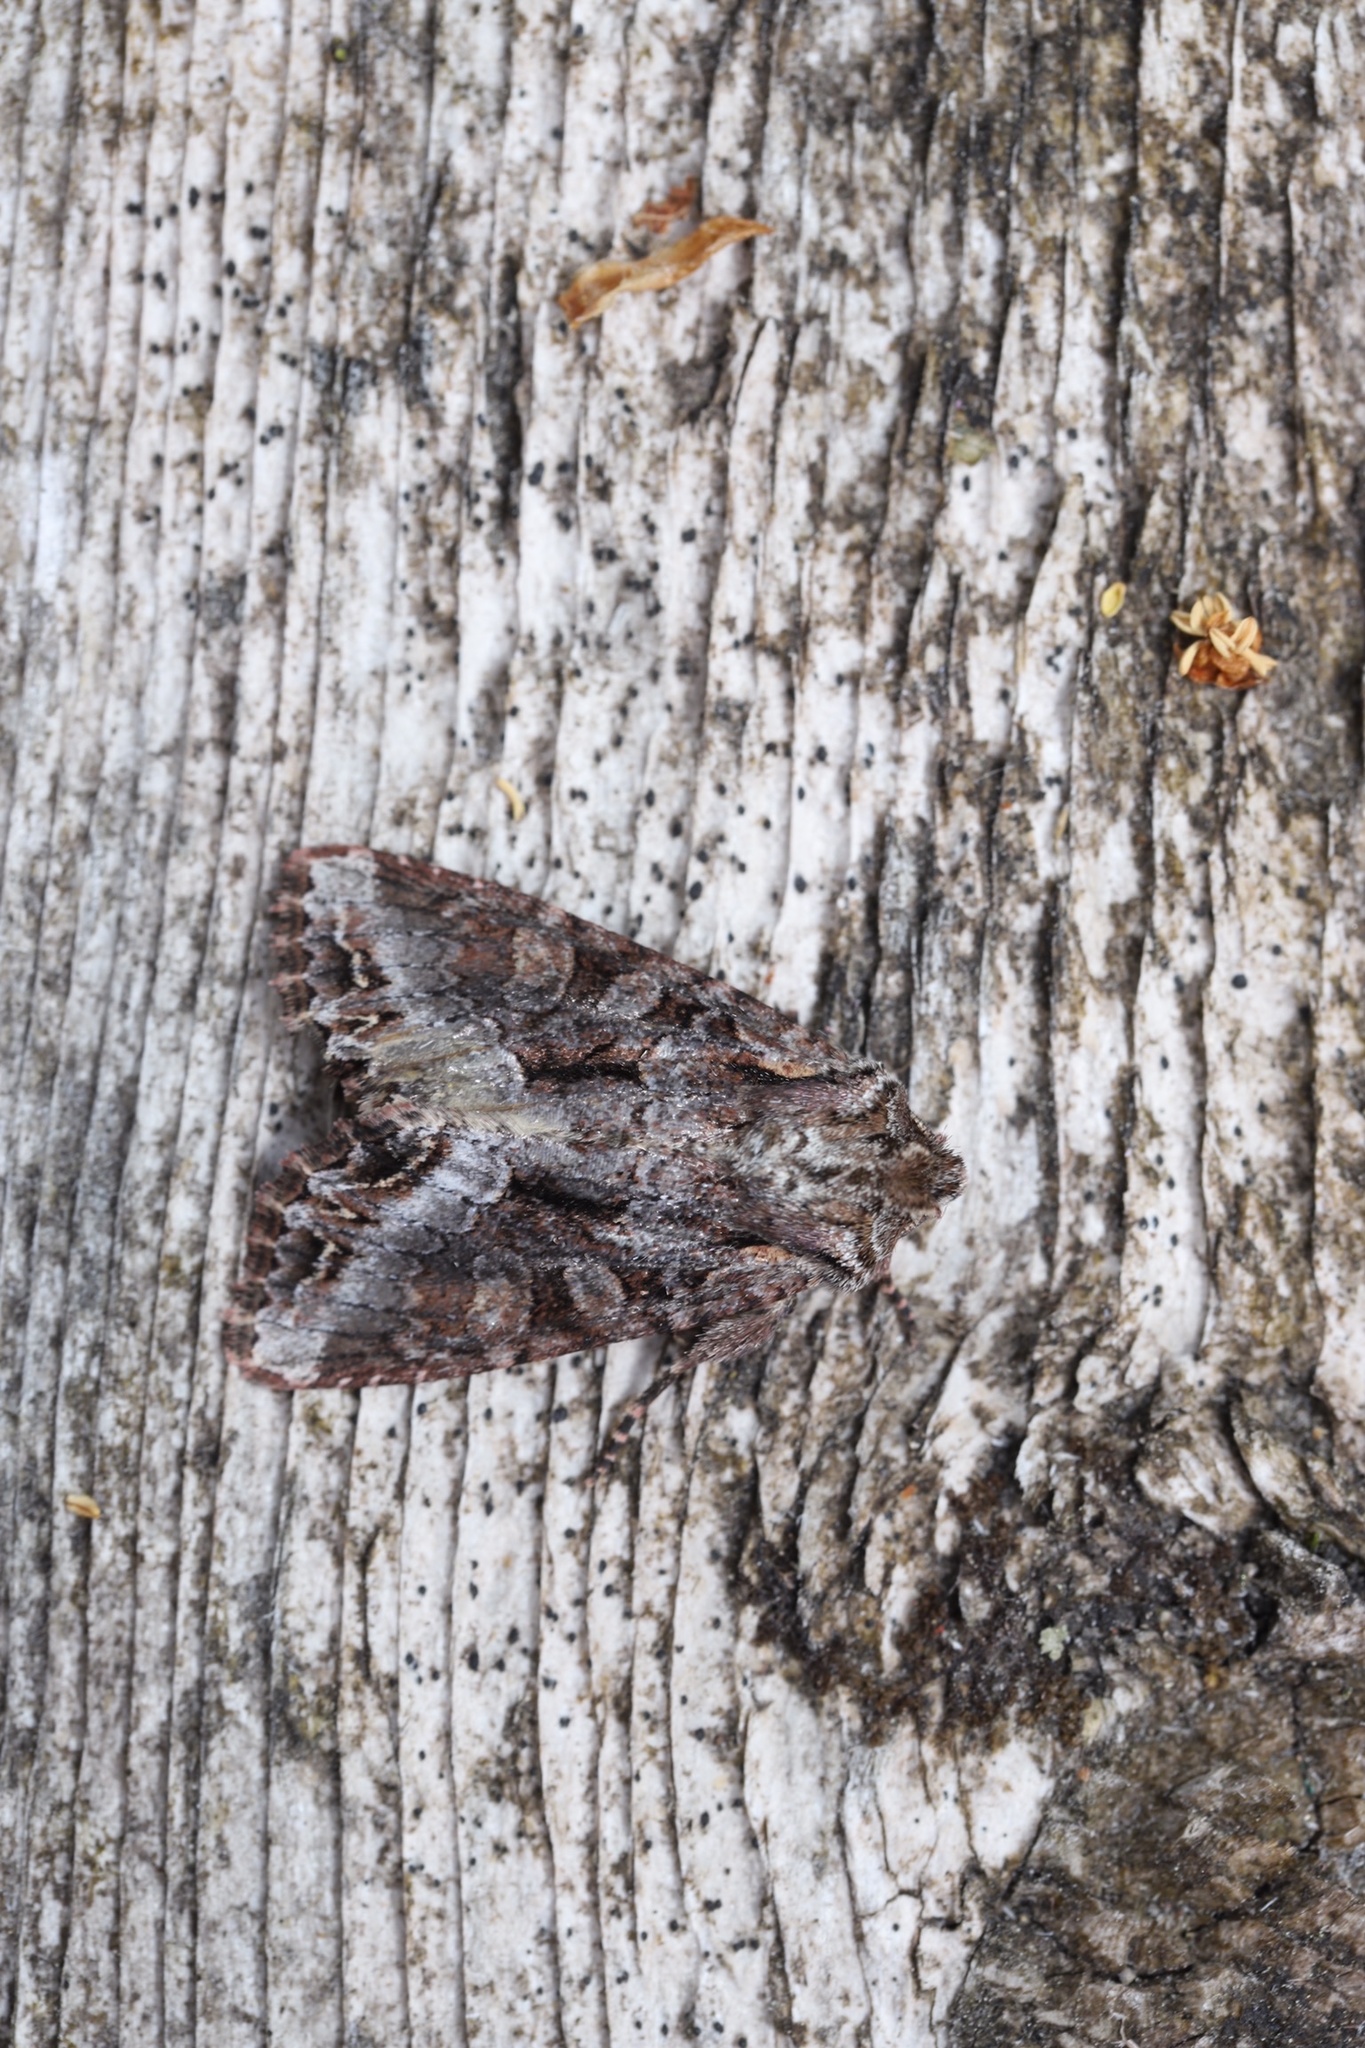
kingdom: Animalia
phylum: Arthropoda
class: Insecta
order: Lepidoptera
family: Noctuidae
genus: Lacanobia
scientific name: Lacanobia grandis
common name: Grand arches moth
